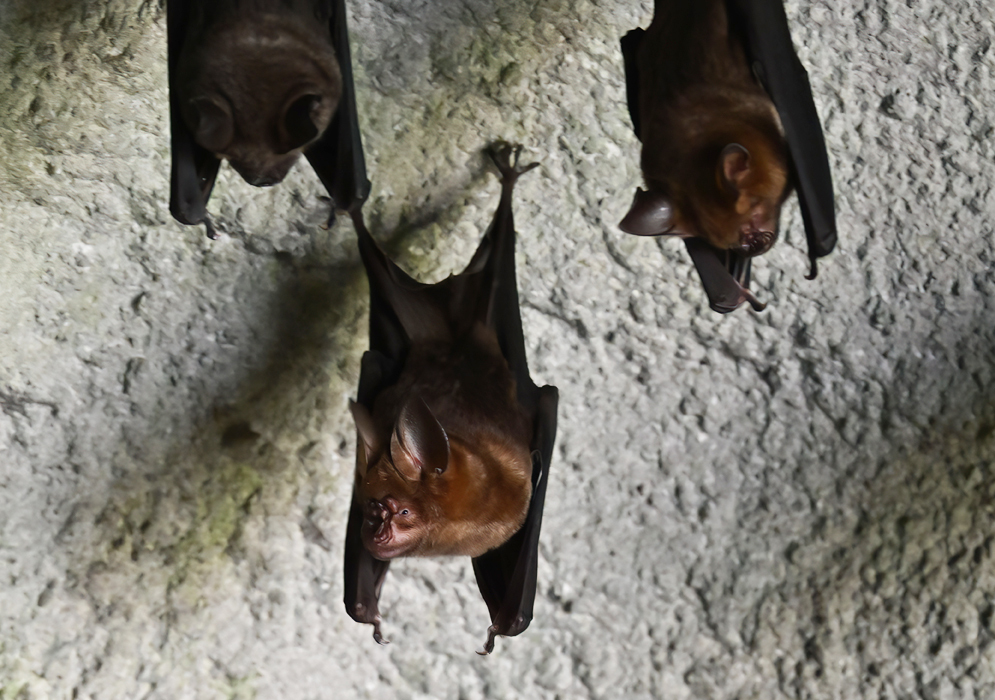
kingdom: Animalia
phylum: Chordata
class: Mammalia
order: Chiroptera
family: Hipposideridae
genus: Hipposideros
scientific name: Hipposideros armiger
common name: Great leaf-nosed bat
